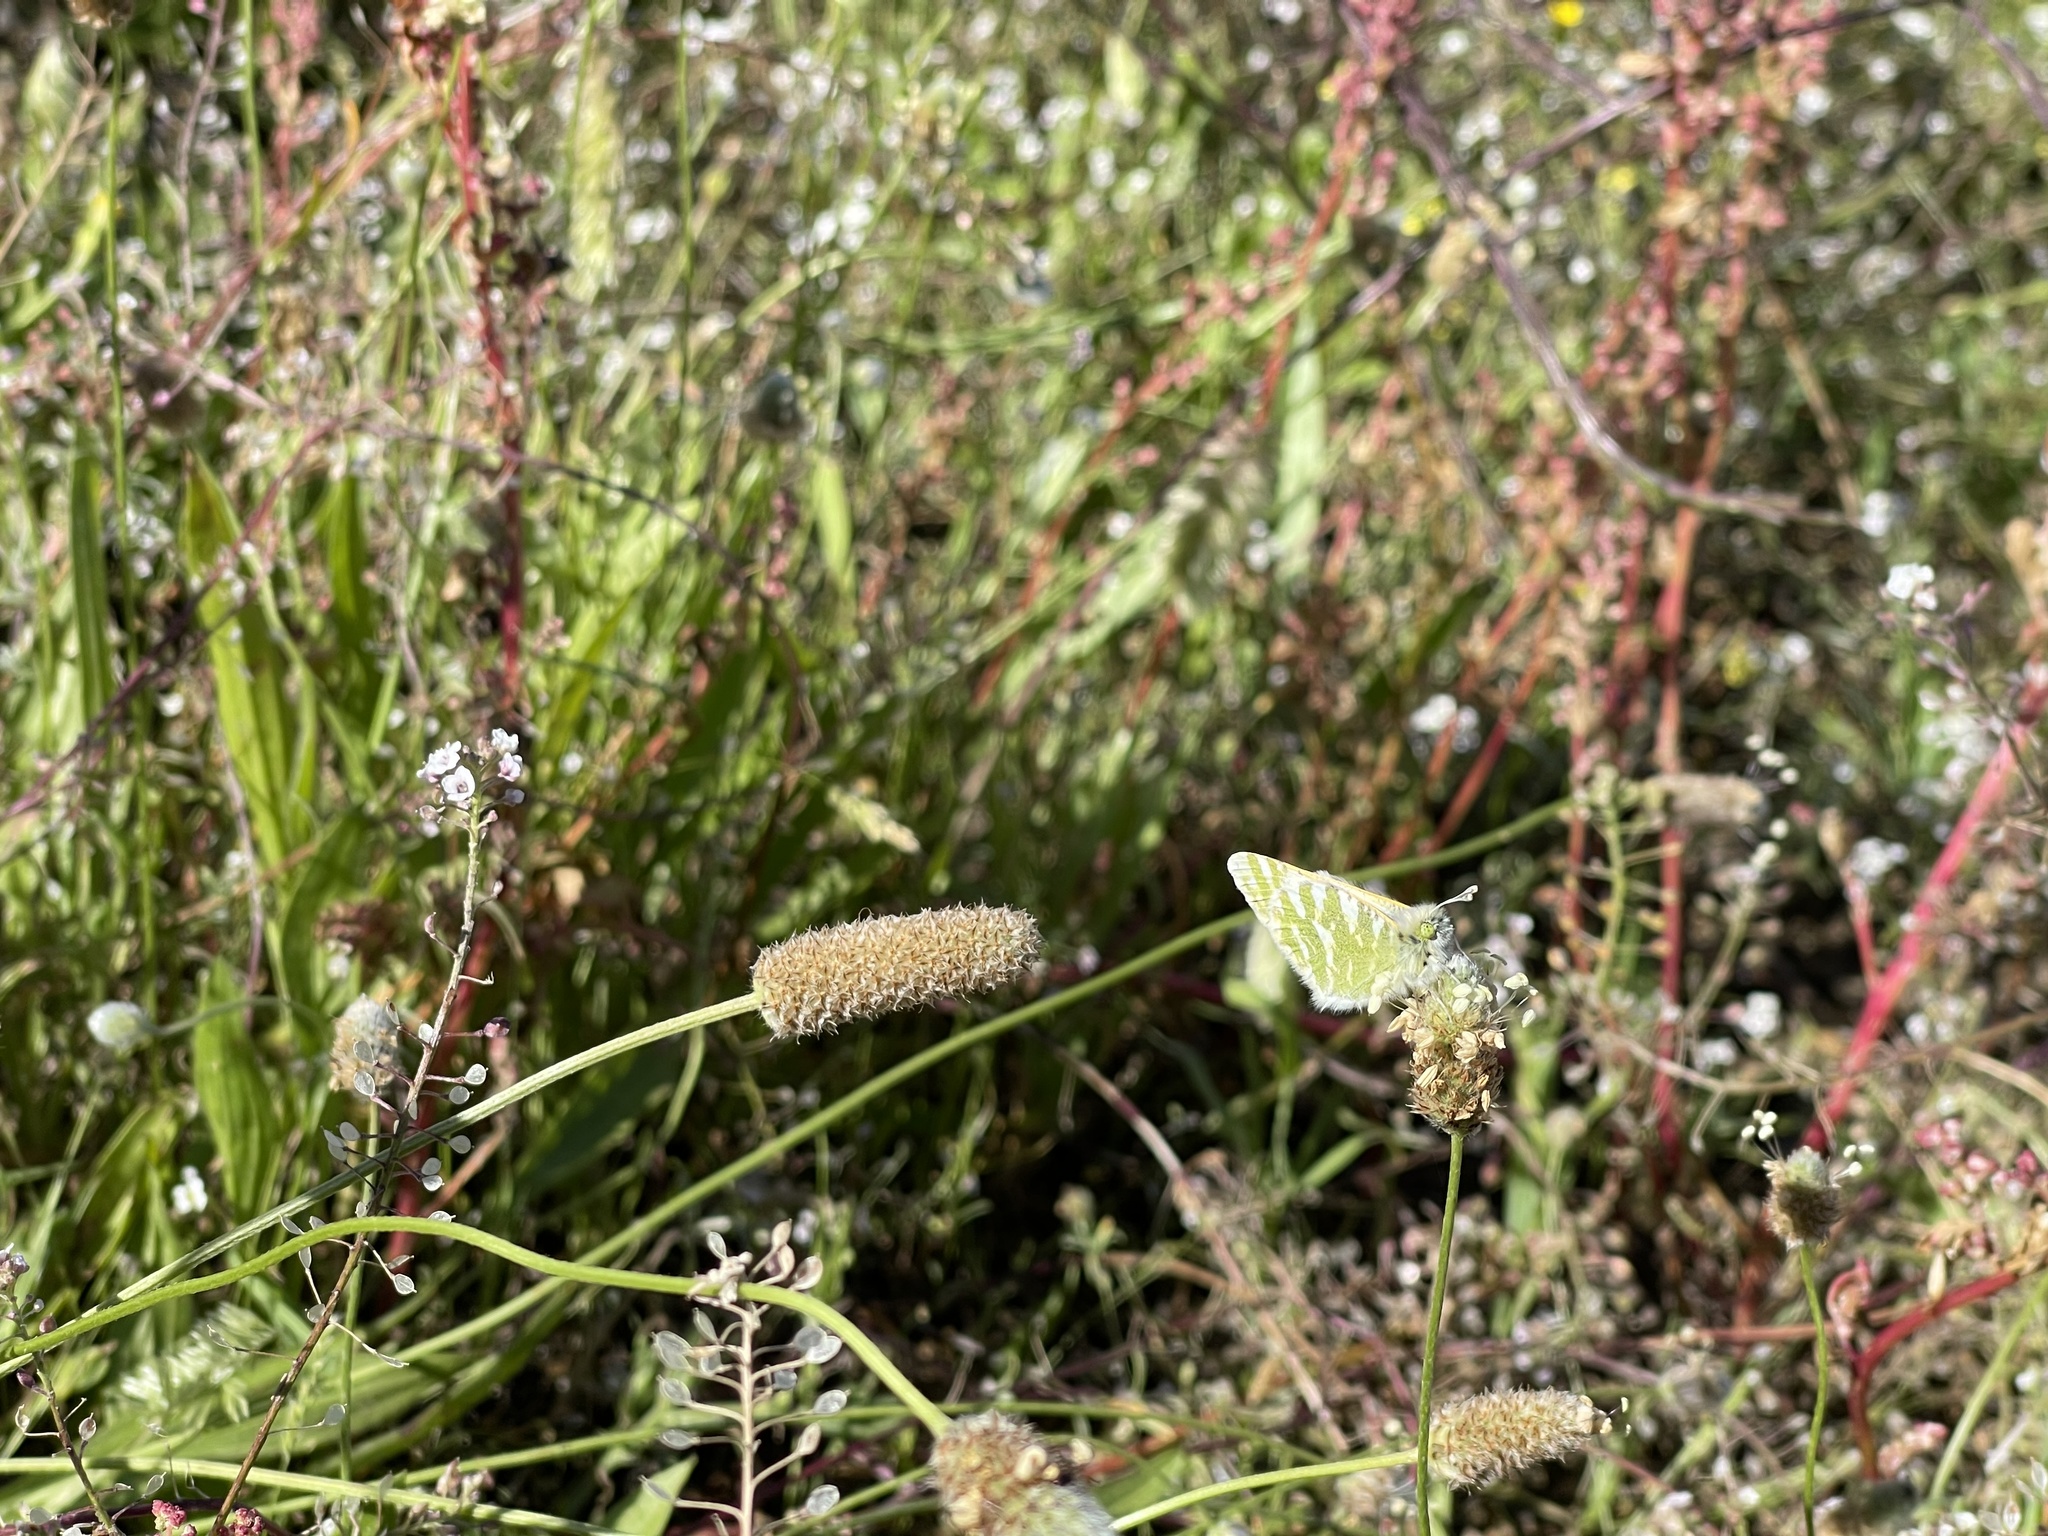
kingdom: Animalia
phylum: Arthropoda
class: Insecta
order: Lepidoptera
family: Pieridae
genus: Euchloe
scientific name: Euchloe grancanariensis
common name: Gran canaria green-striped white
